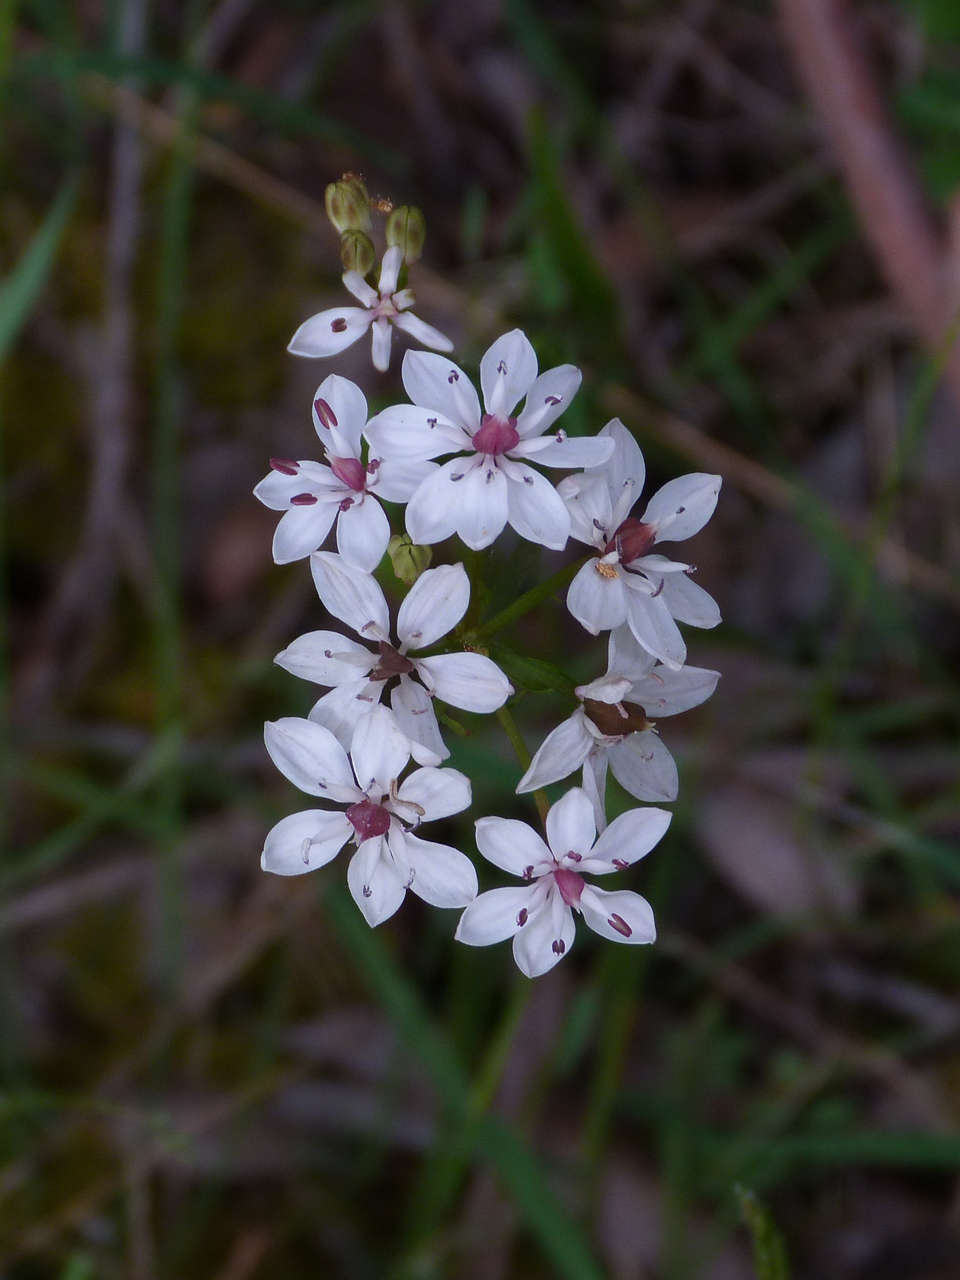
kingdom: Plantae
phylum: Tracheophyta
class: Liliopsida
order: Liliales
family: Colchicaceae
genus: Burchardia
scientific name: Burchardia umbellata
